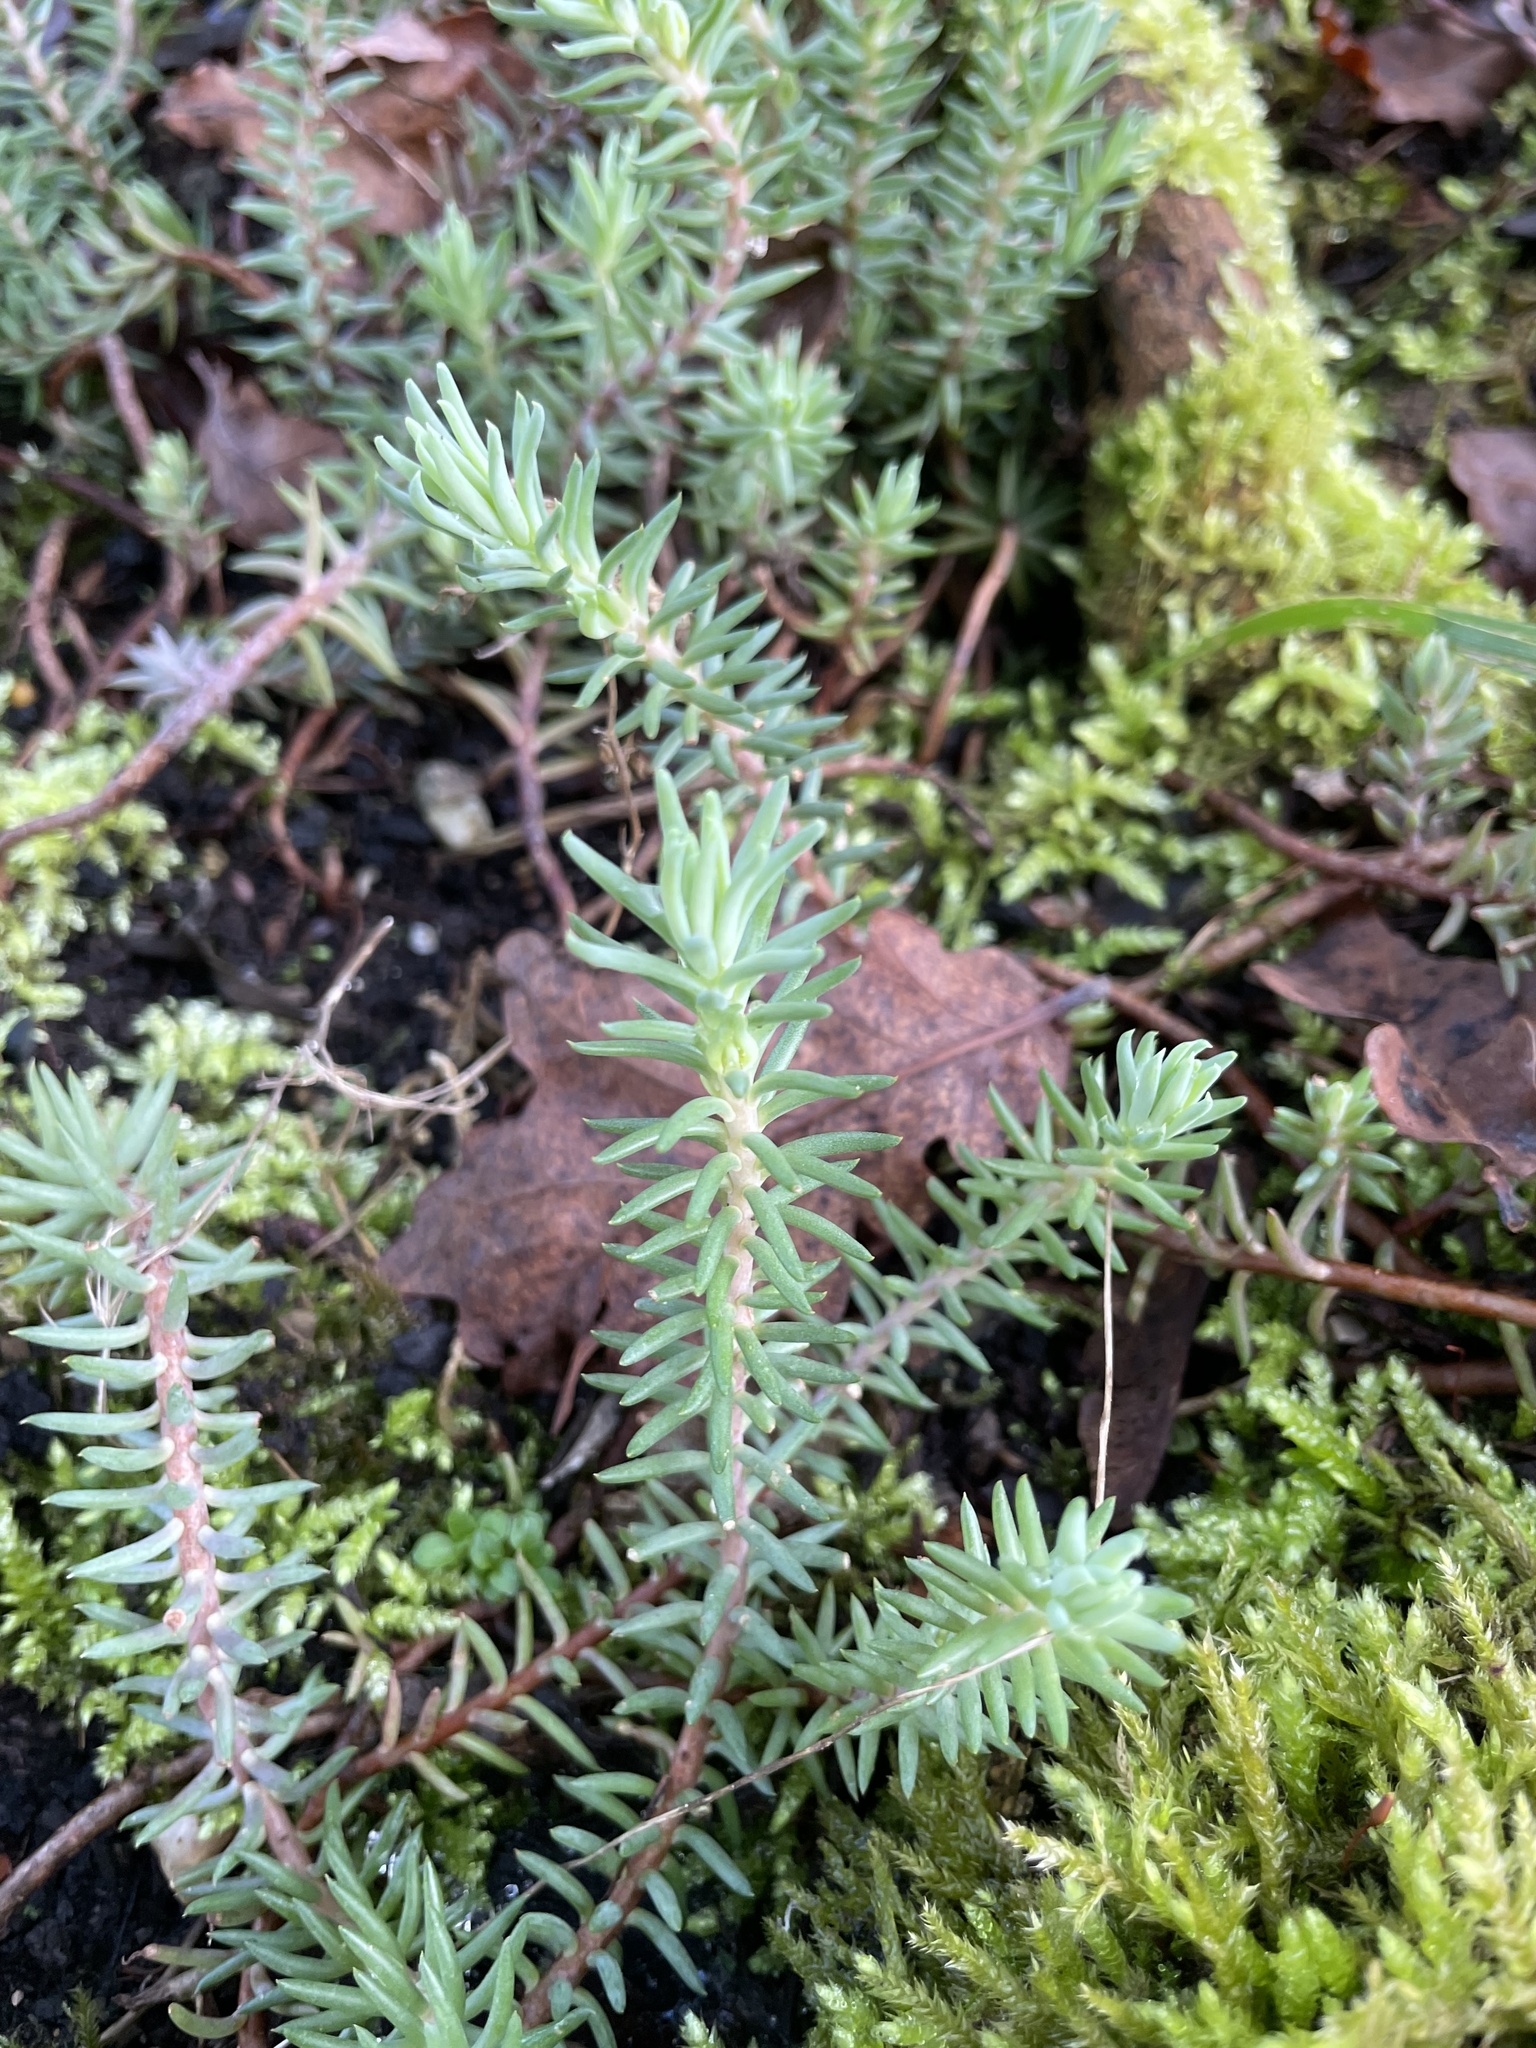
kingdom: Plantae
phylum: Tracheophyta
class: Magnoliopsida
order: Saxifragales
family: Crassulaceae
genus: Petrosedum
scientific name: Petrosedum rupestre
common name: Jenny's stonecrop
